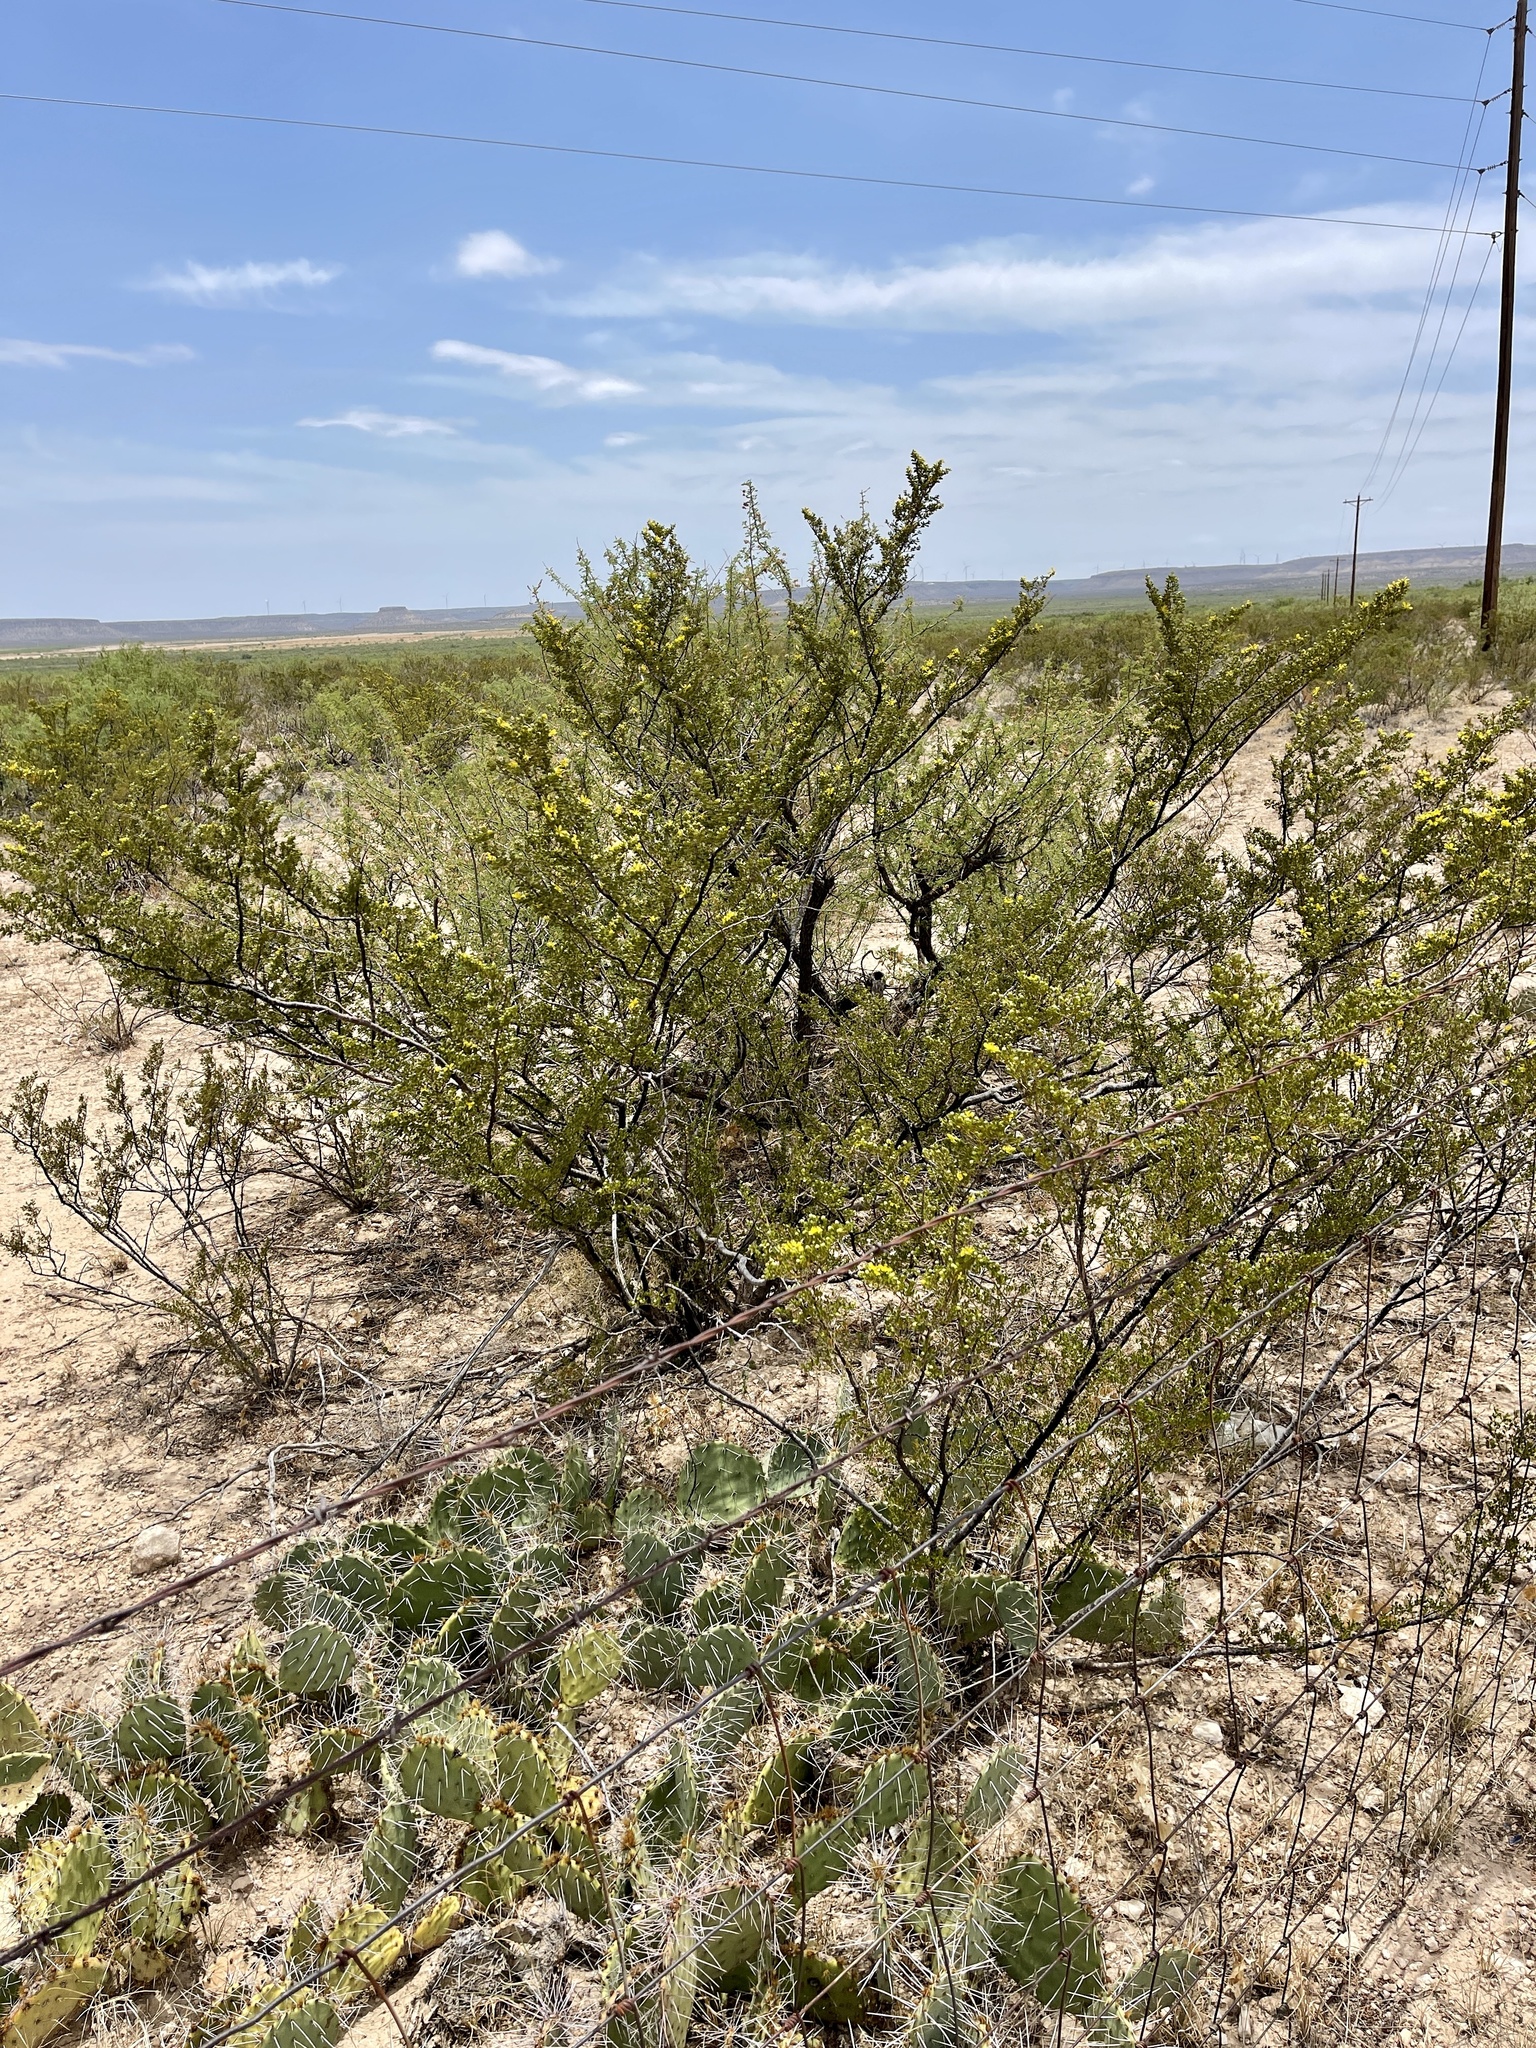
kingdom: Plantae
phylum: Tracheophyta
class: Magnoliopsida
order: Zygophyllales
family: Zygophyllaceae
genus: Larrea
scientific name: Larrea tridentata
